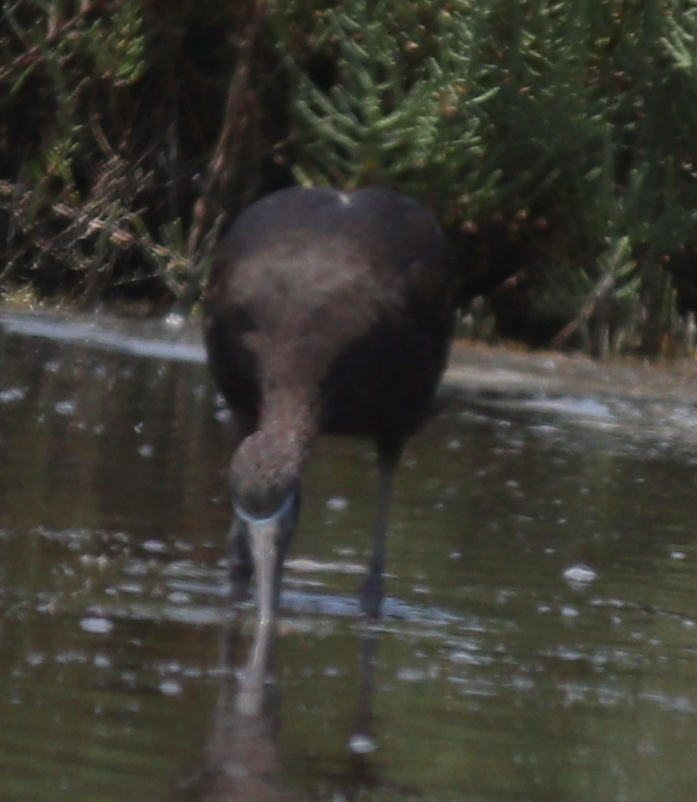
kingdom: Animalia
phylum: Chordata
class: Aves
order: Pelecaniformes
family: Threskiornithidae
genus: Plegadis
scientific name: Plegadis falcinellus
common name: Glossy ibis
